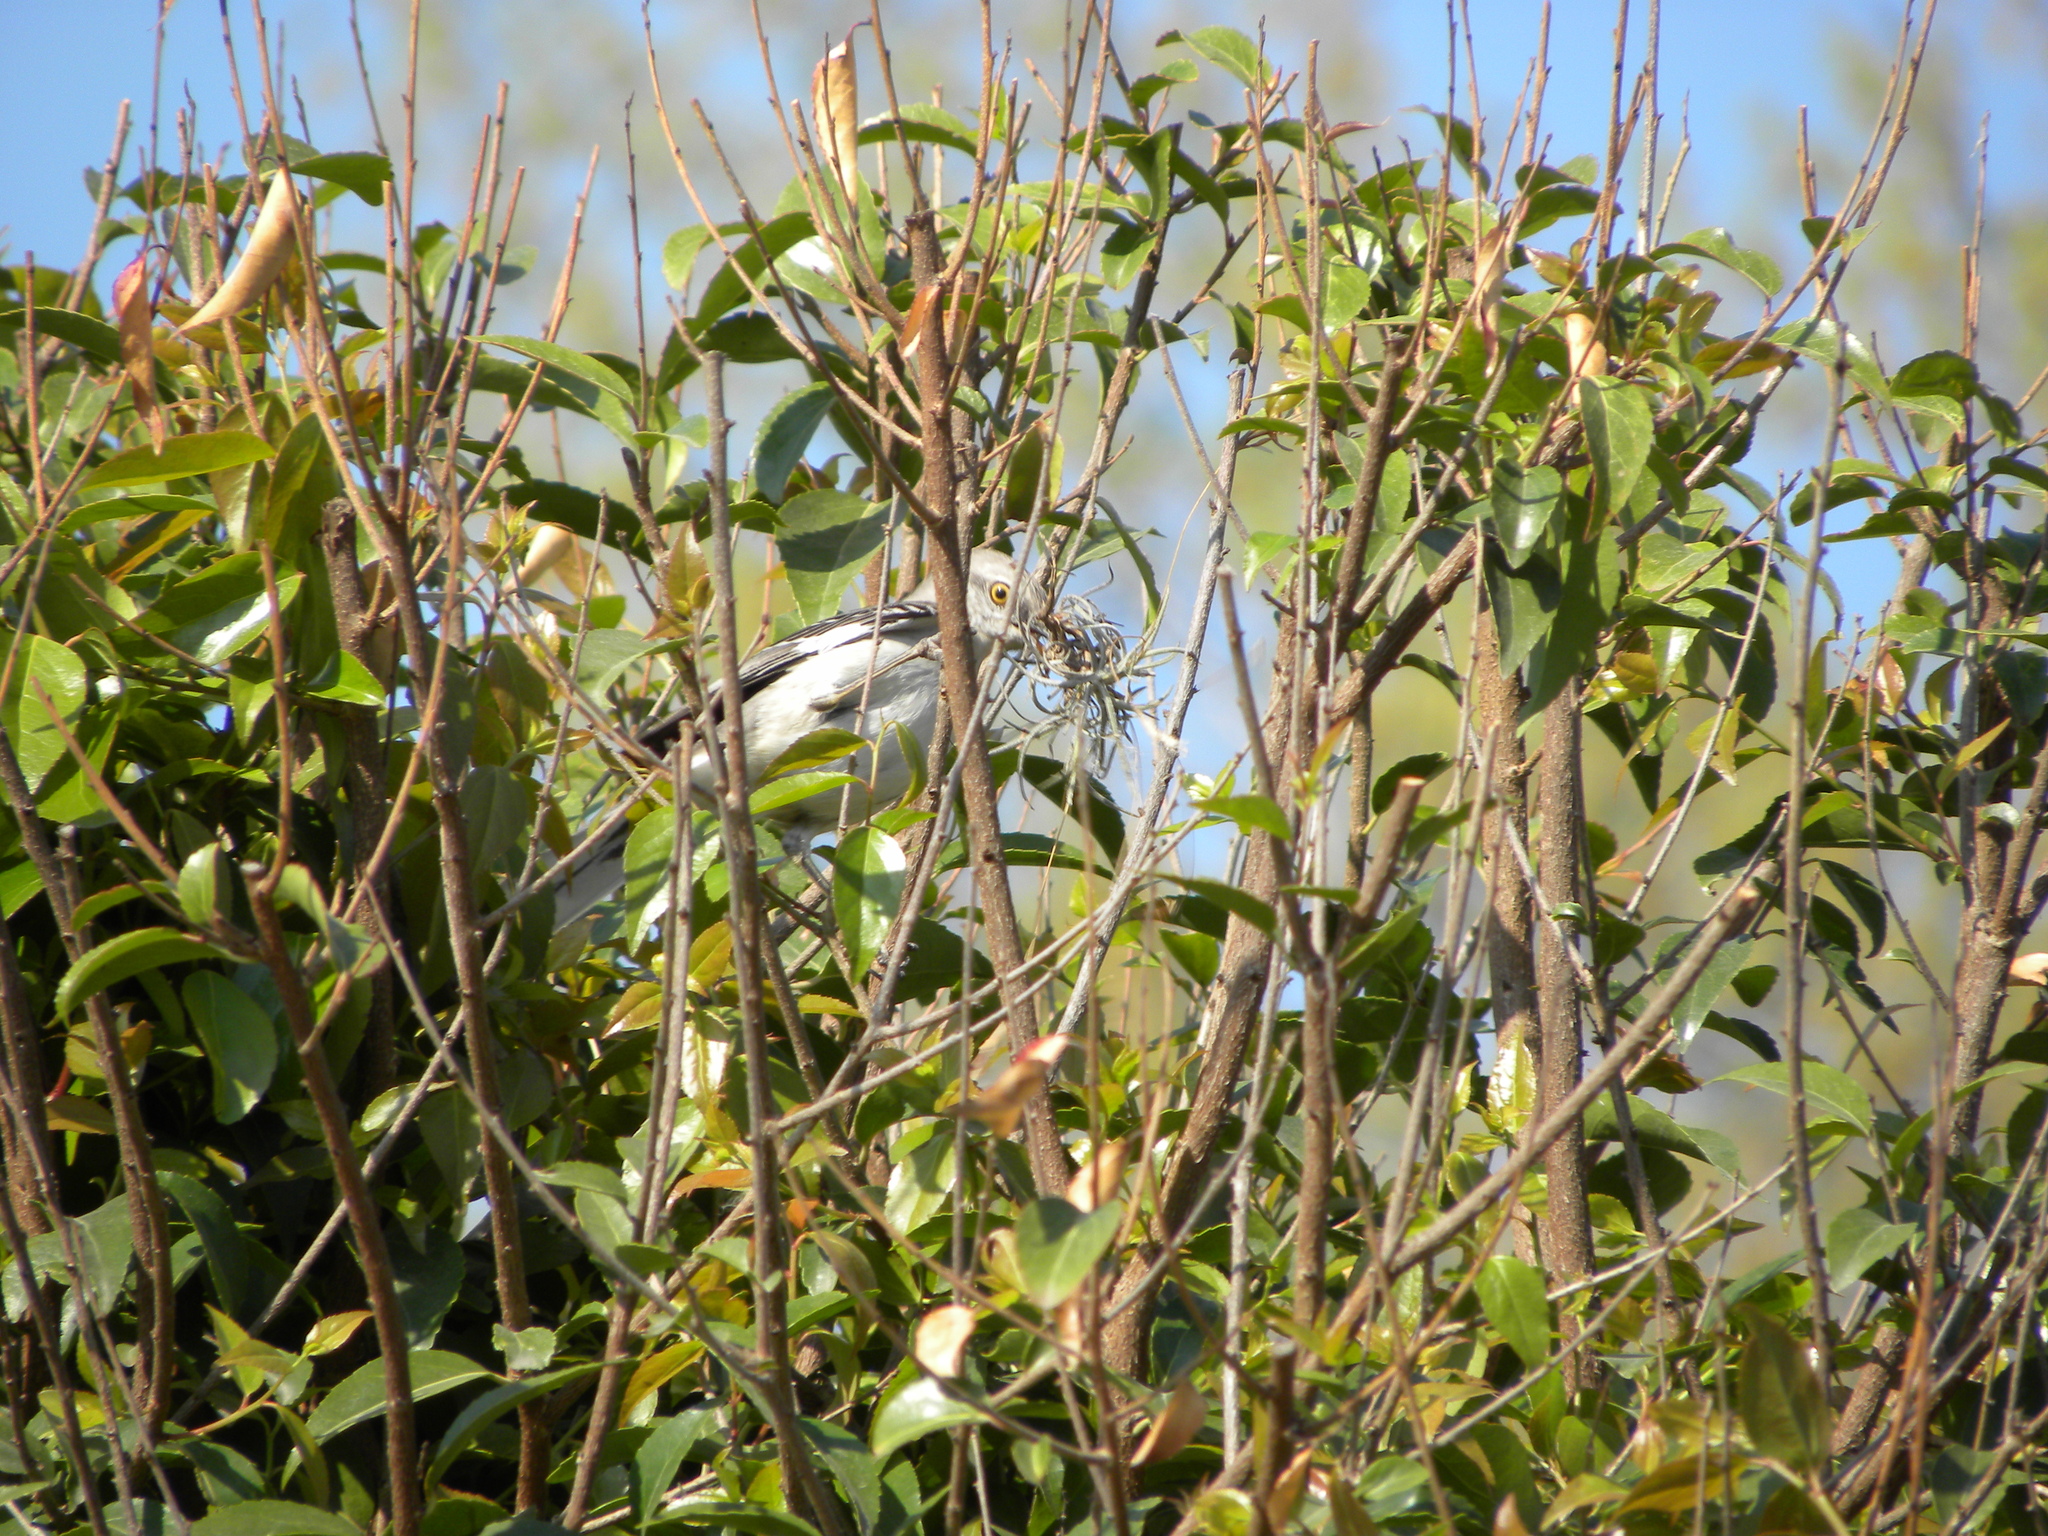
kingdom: Animalia
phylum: Chordata
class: Aves
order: Passeriformes
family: Mimidae
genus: Mimus
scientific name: Mimus polyglottos
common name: Northern mockingbird
